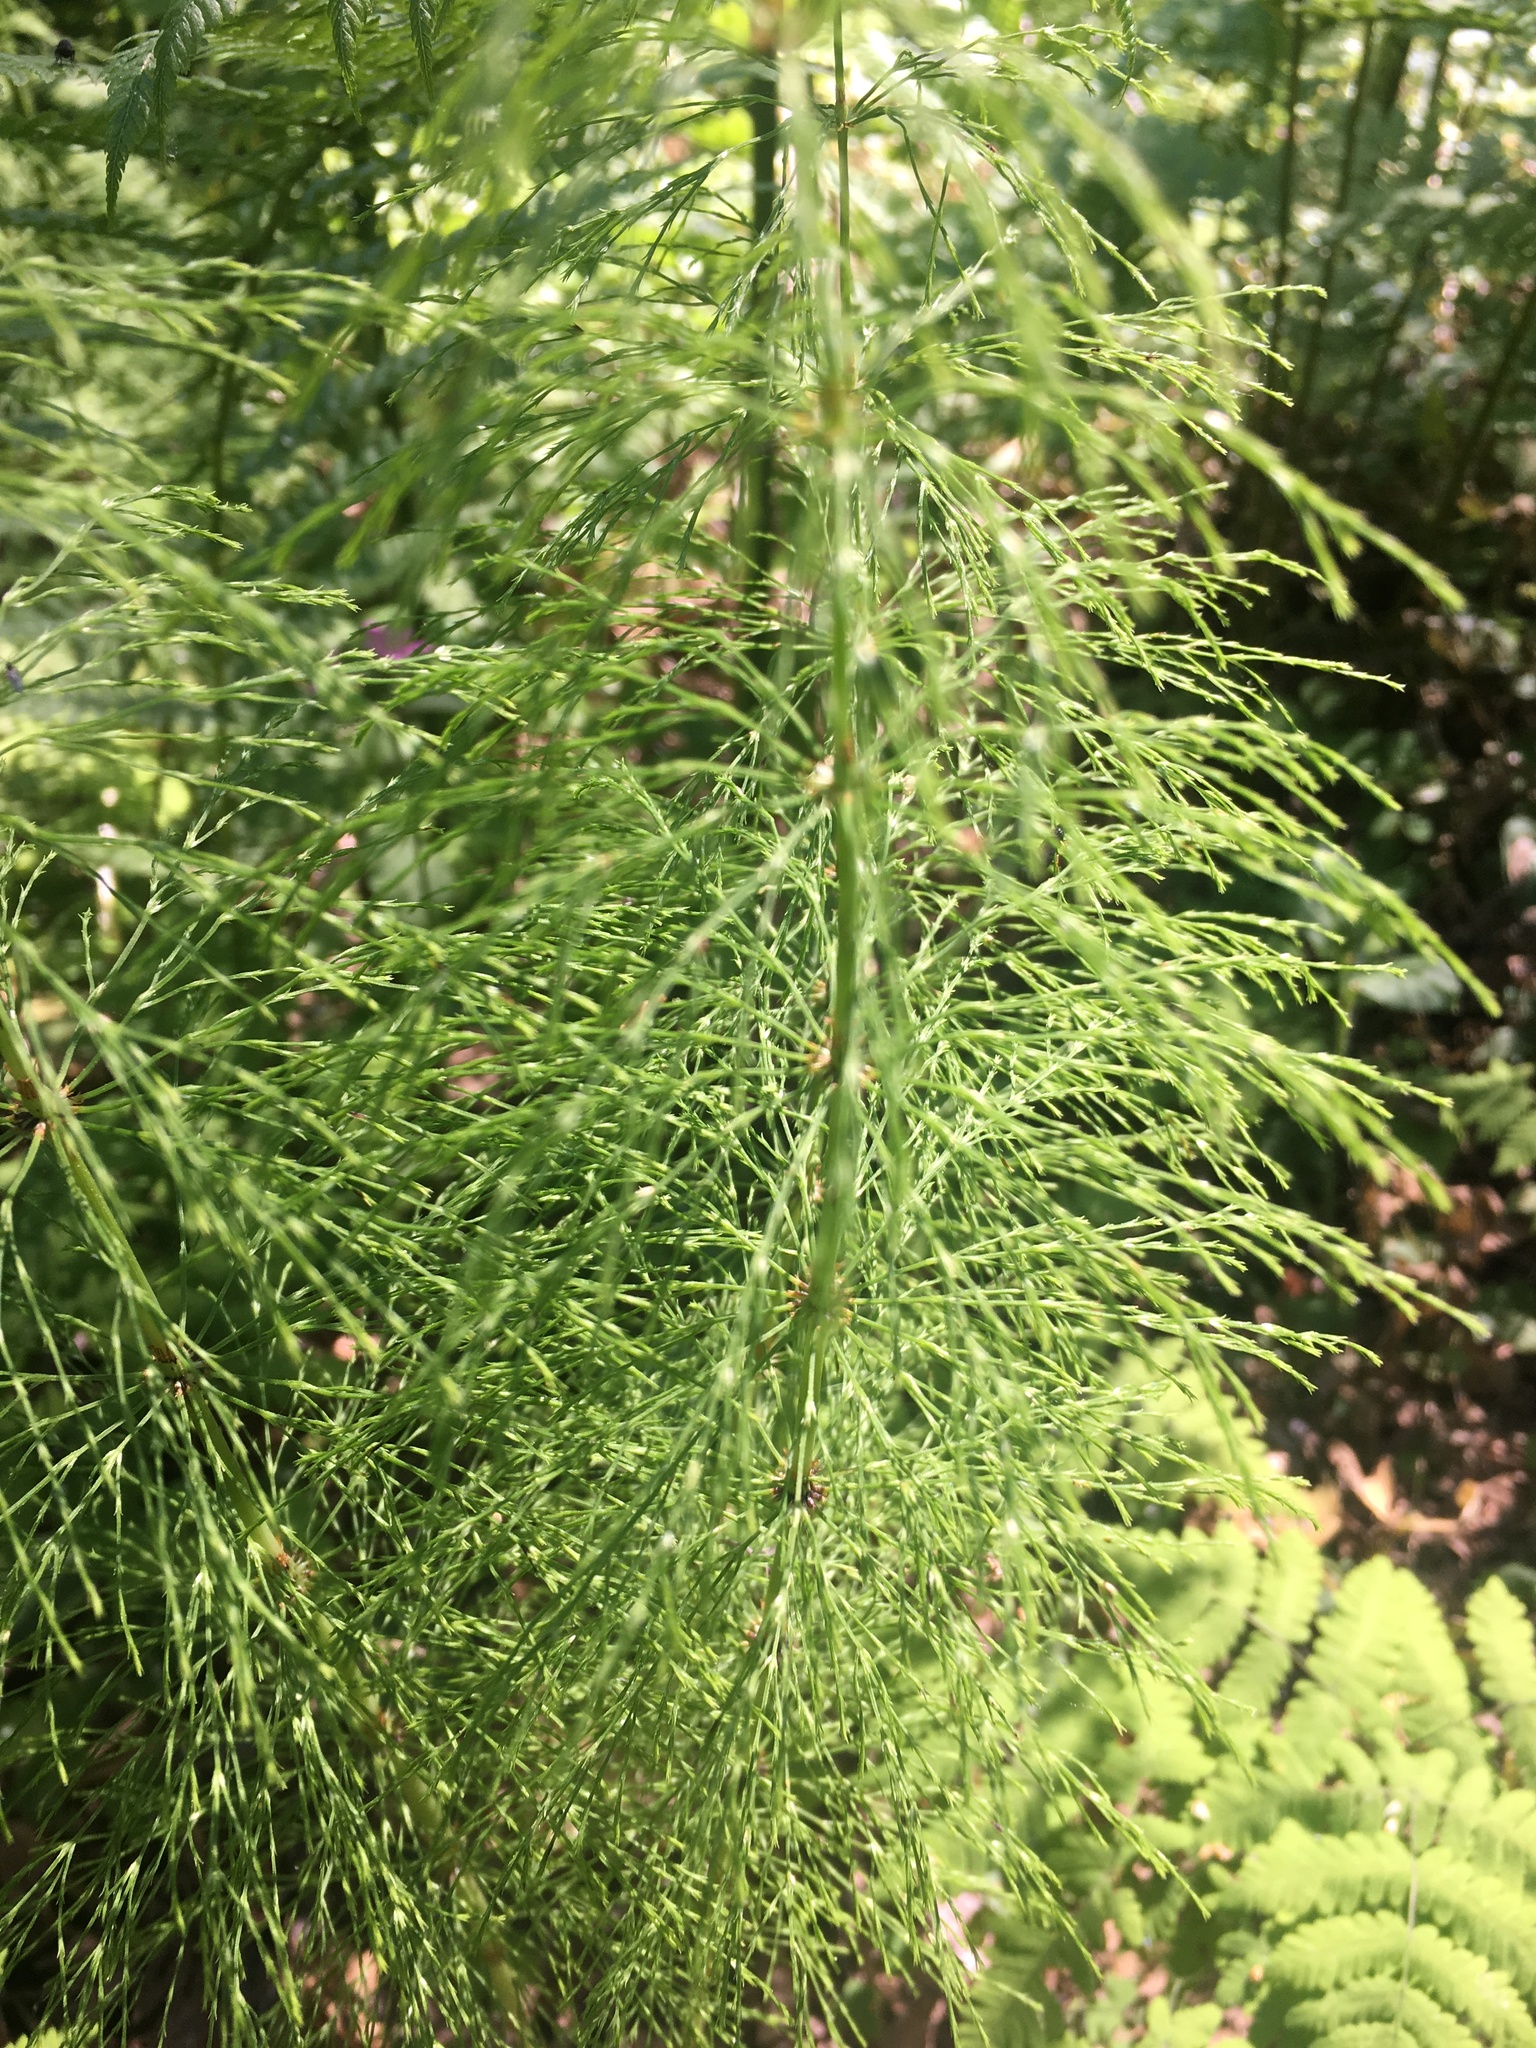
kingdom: Plantae
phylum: Tracheophyta
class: Polypodiopsida
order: Equisetales
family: Equisetaceae
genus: Equisetum
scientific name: Equisetum sylvaticum
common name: Wood horsetail
